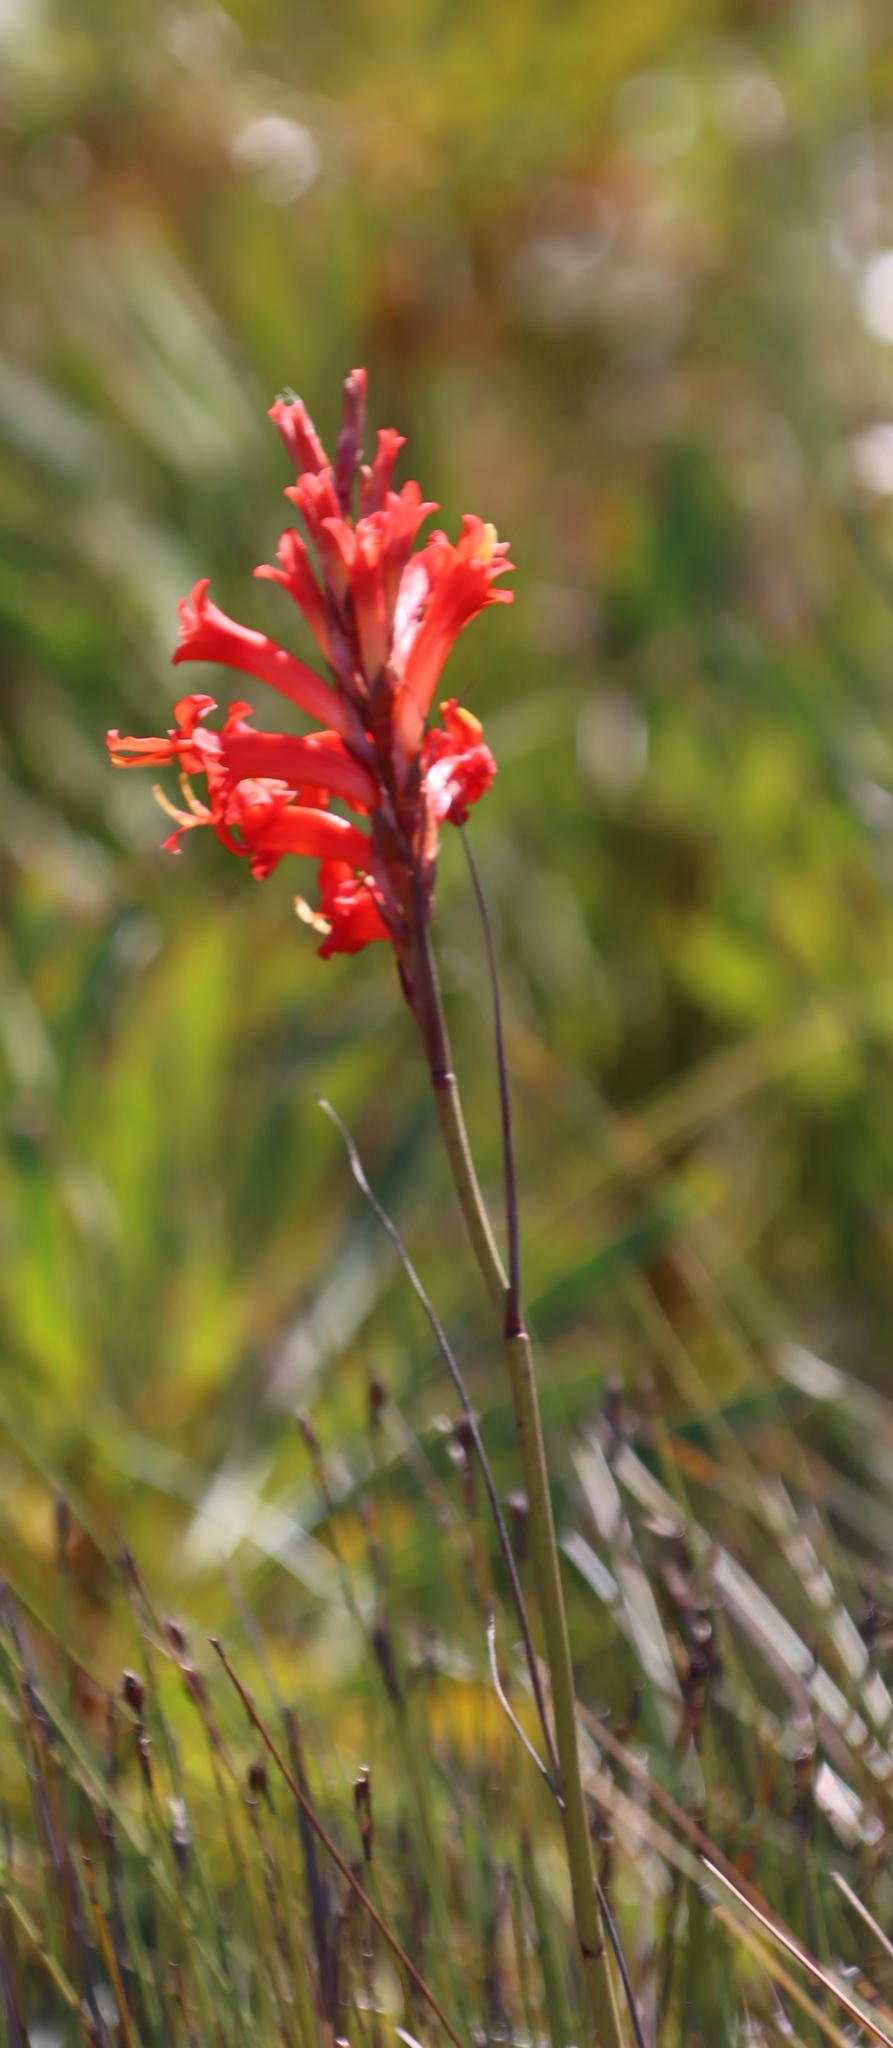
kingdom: Plantae
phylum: Tracheophyta
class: Liliopsida
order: Asparagales
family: Iridaceae
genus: Tritoniopsis
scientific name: Tritoniopsis triticea
